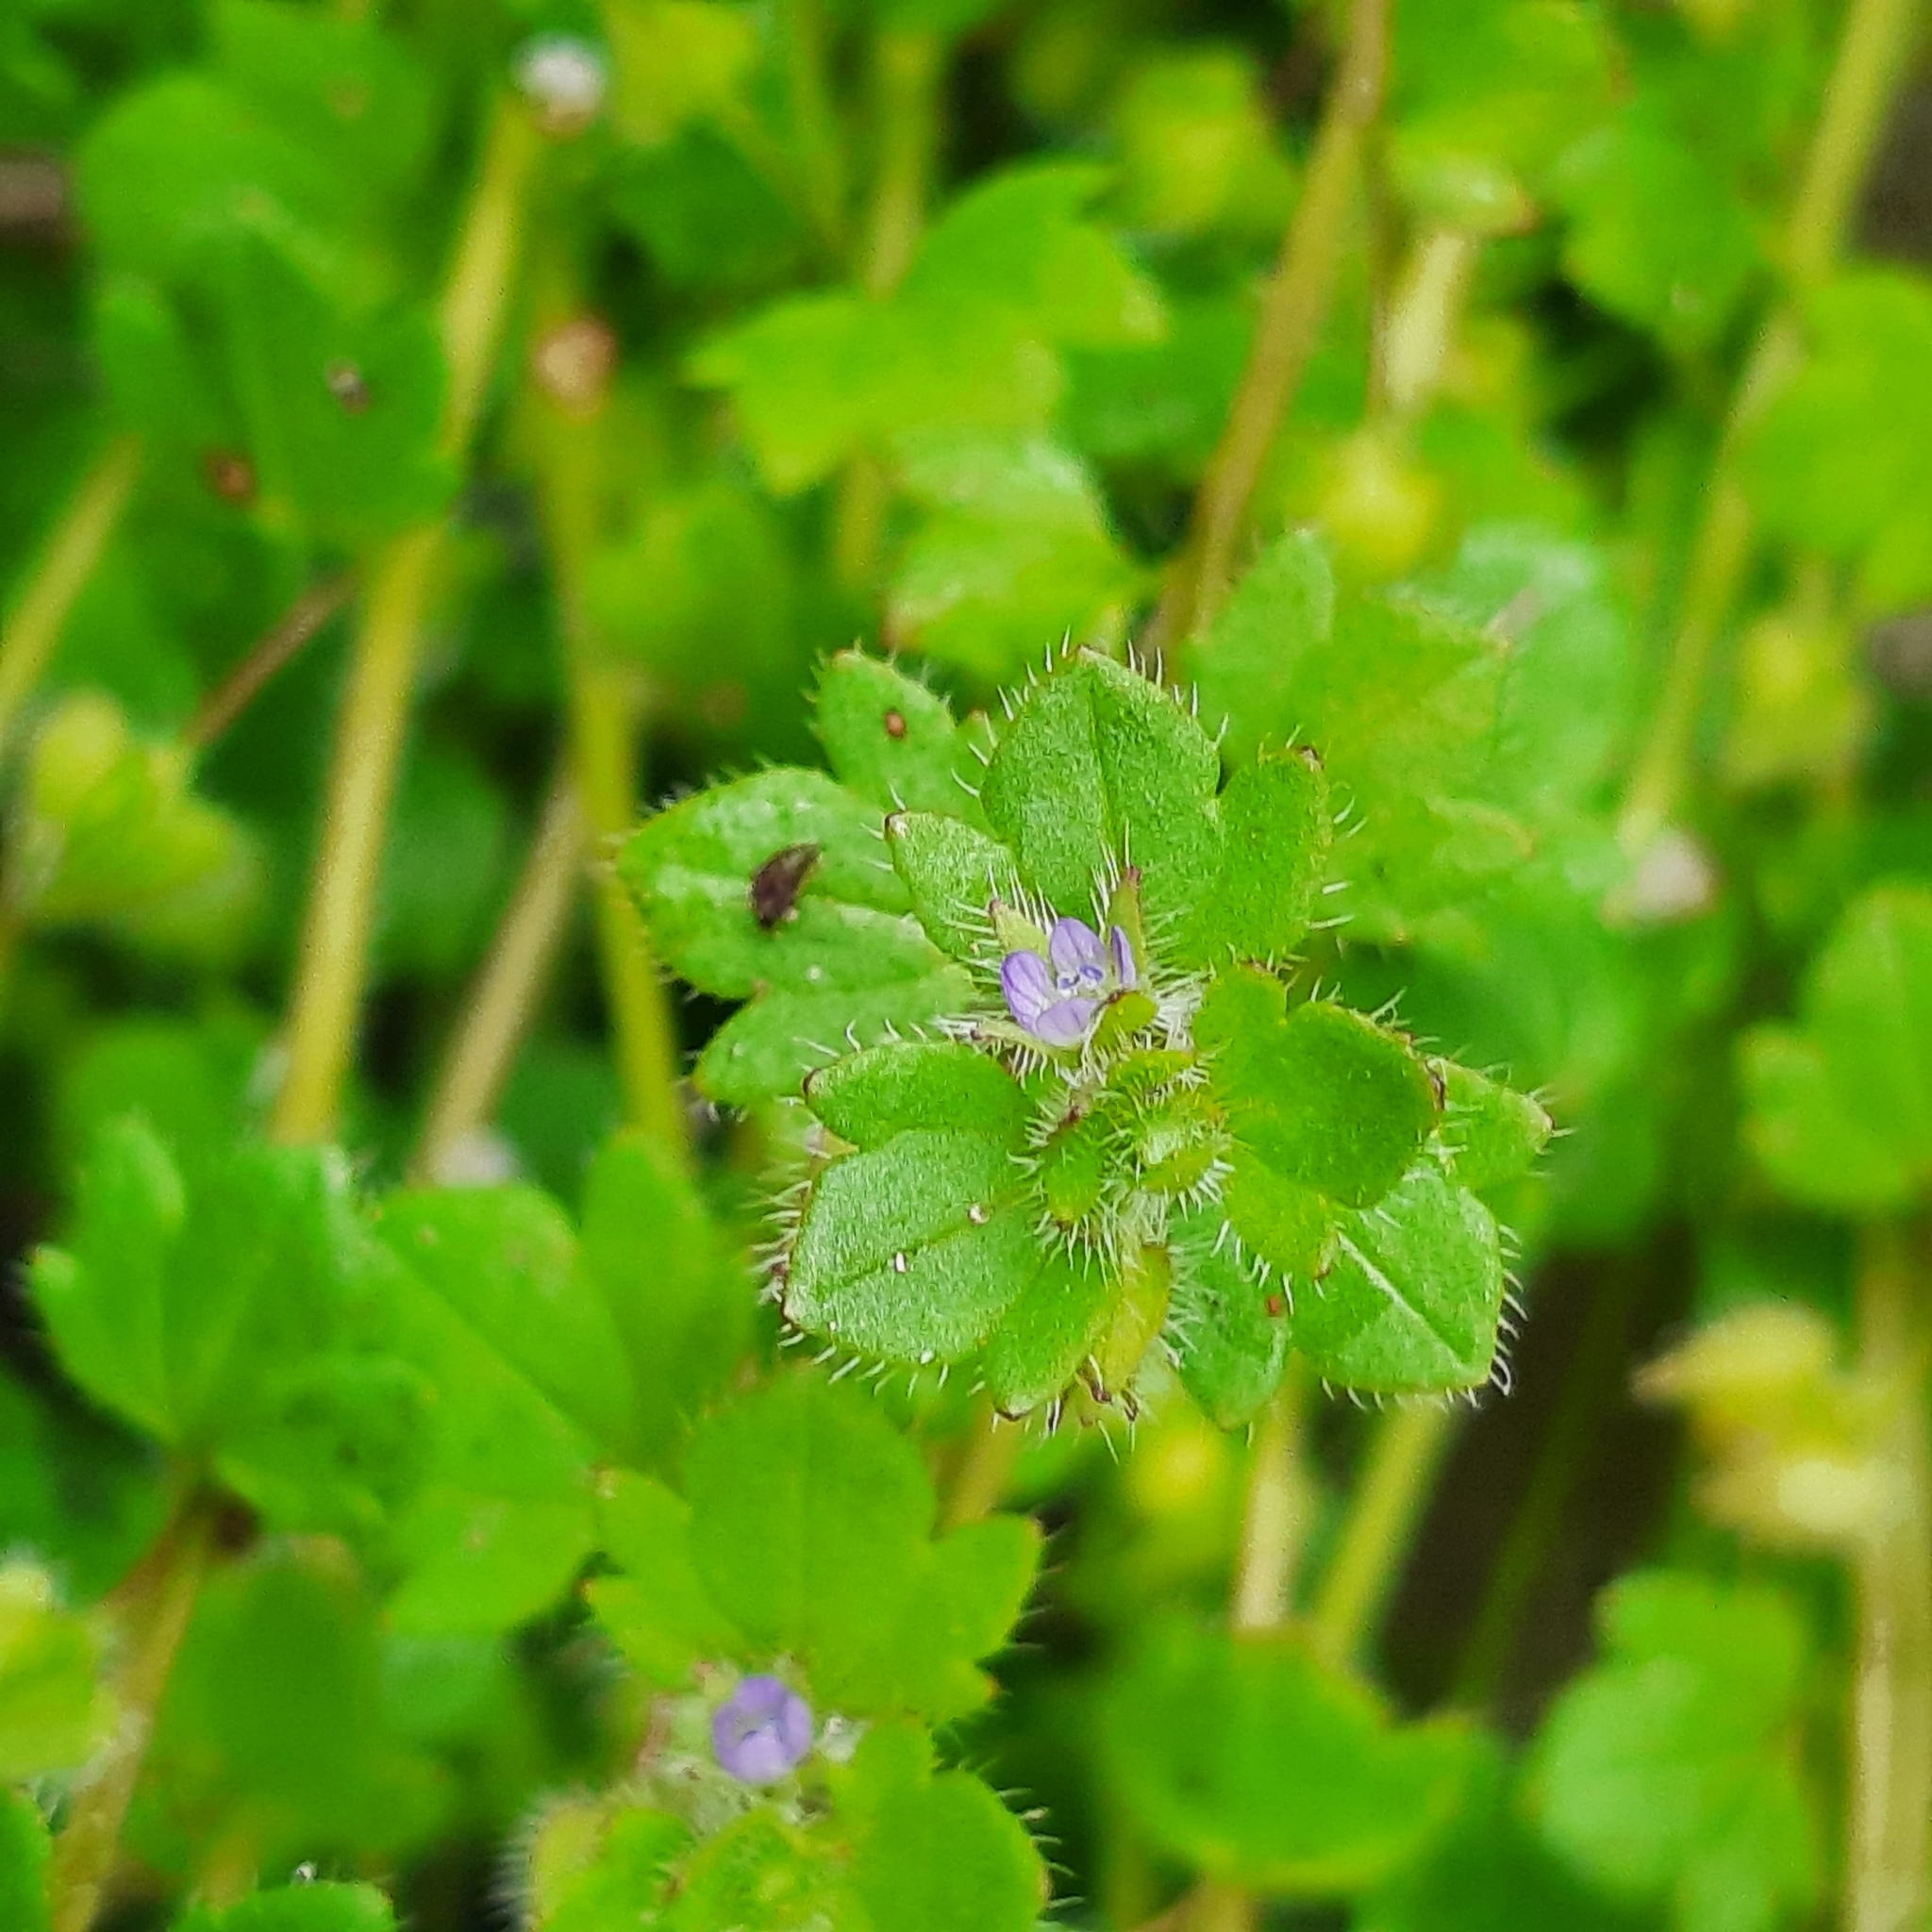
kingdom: Plantae
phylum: Tracheophyta
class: Magnoliopsida
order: Lamiales
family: Plantaginaceae
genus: Veronica
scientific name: Veronica sublobata
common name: False ivy-leaved speedwell
